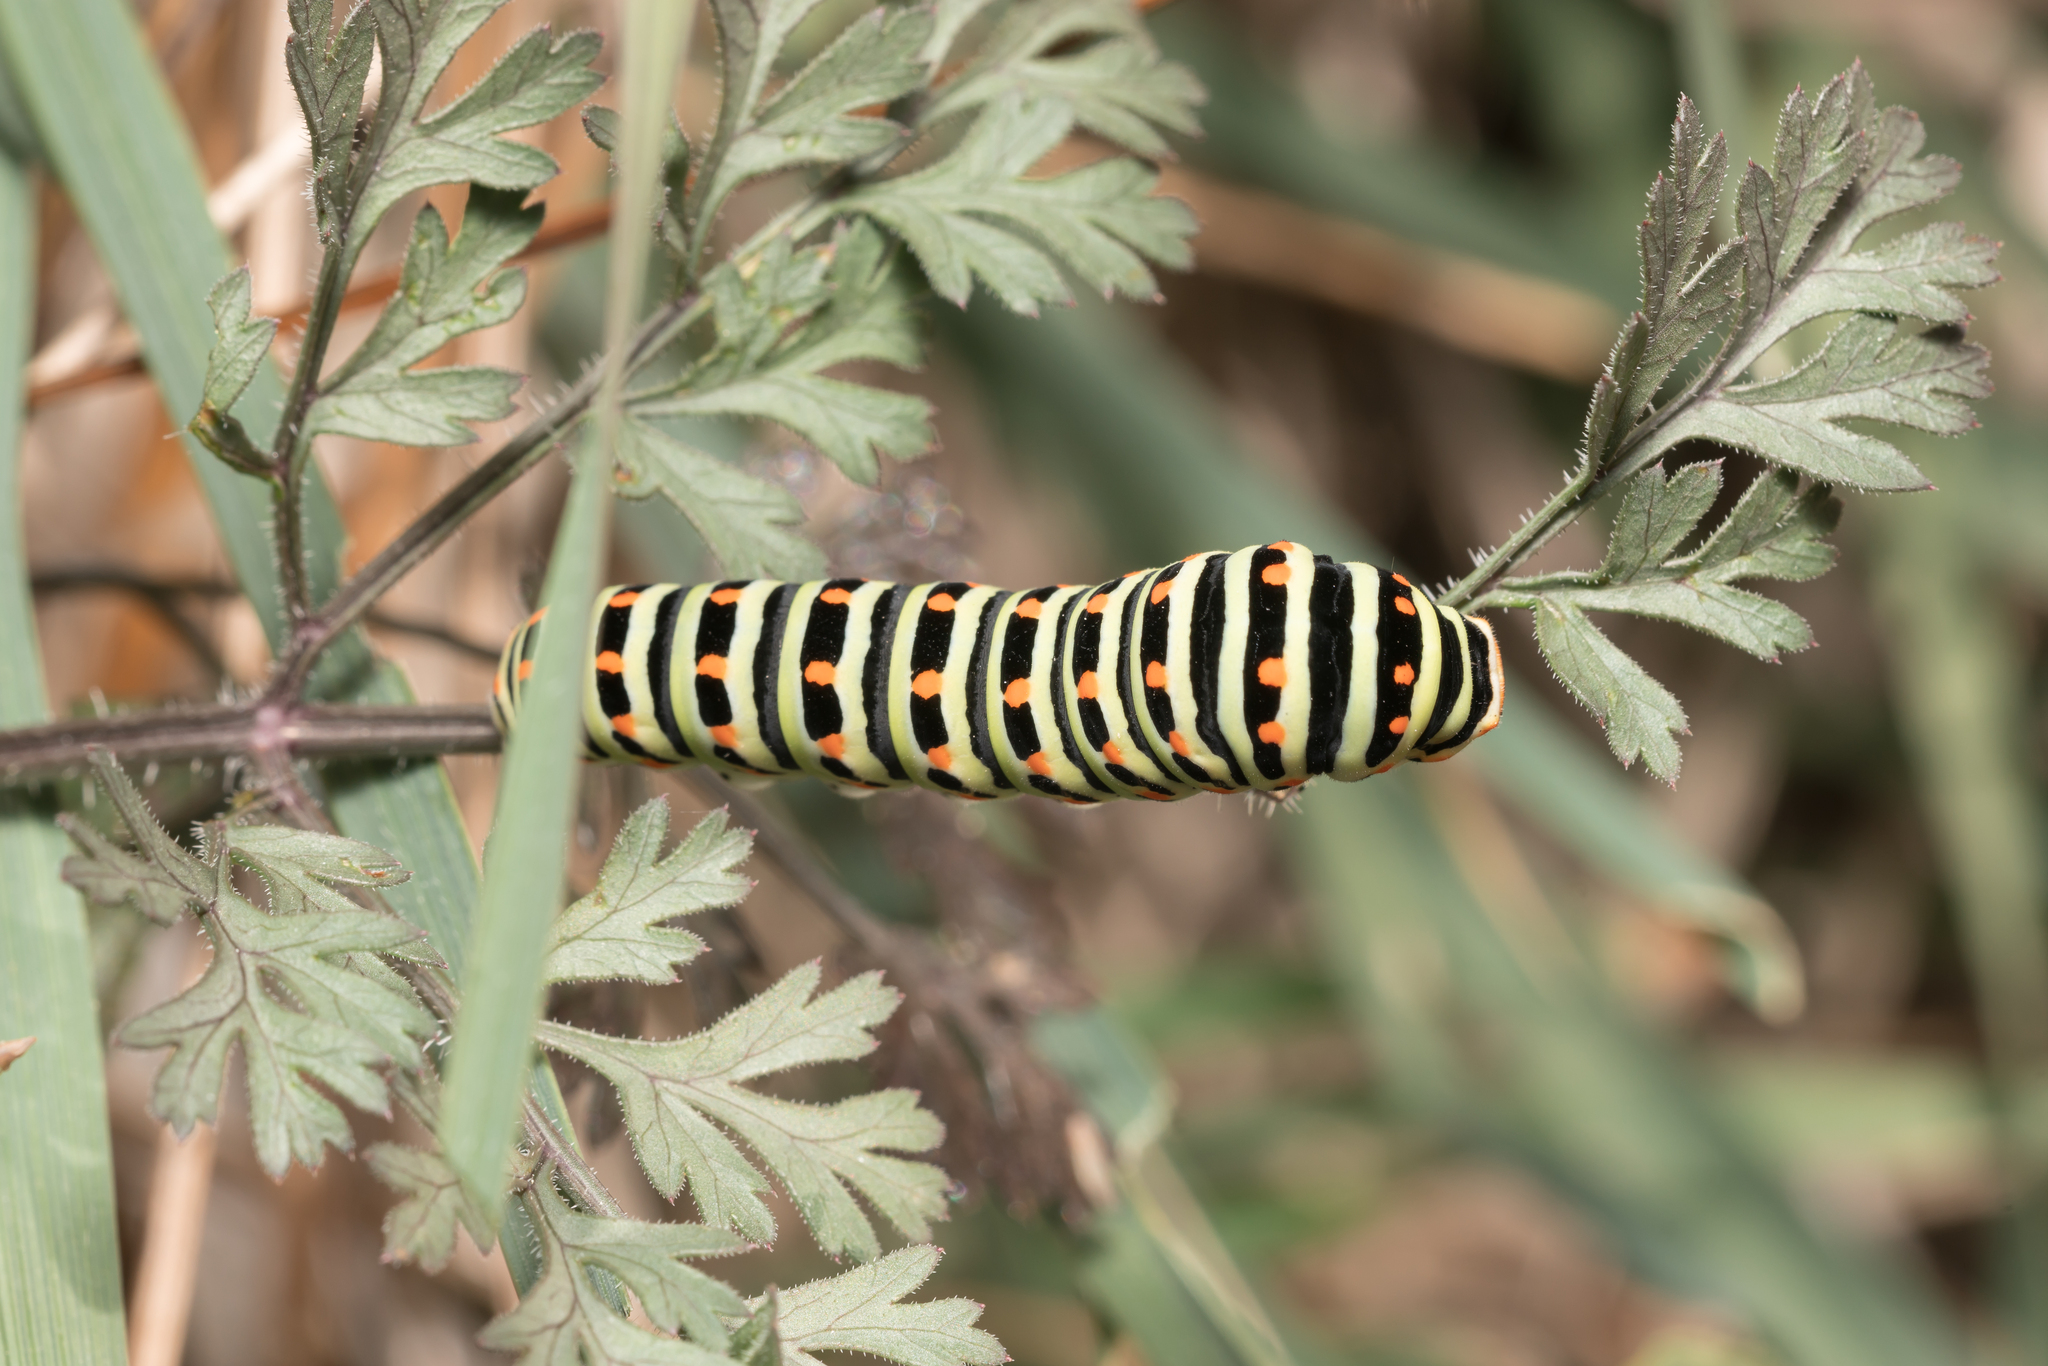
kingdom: Animalia
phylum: Arthropoda
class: Insecta
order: Lepidoptera
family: Papilionidae
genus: Papilio
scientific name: Papilio machaon
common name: Swallowtail
